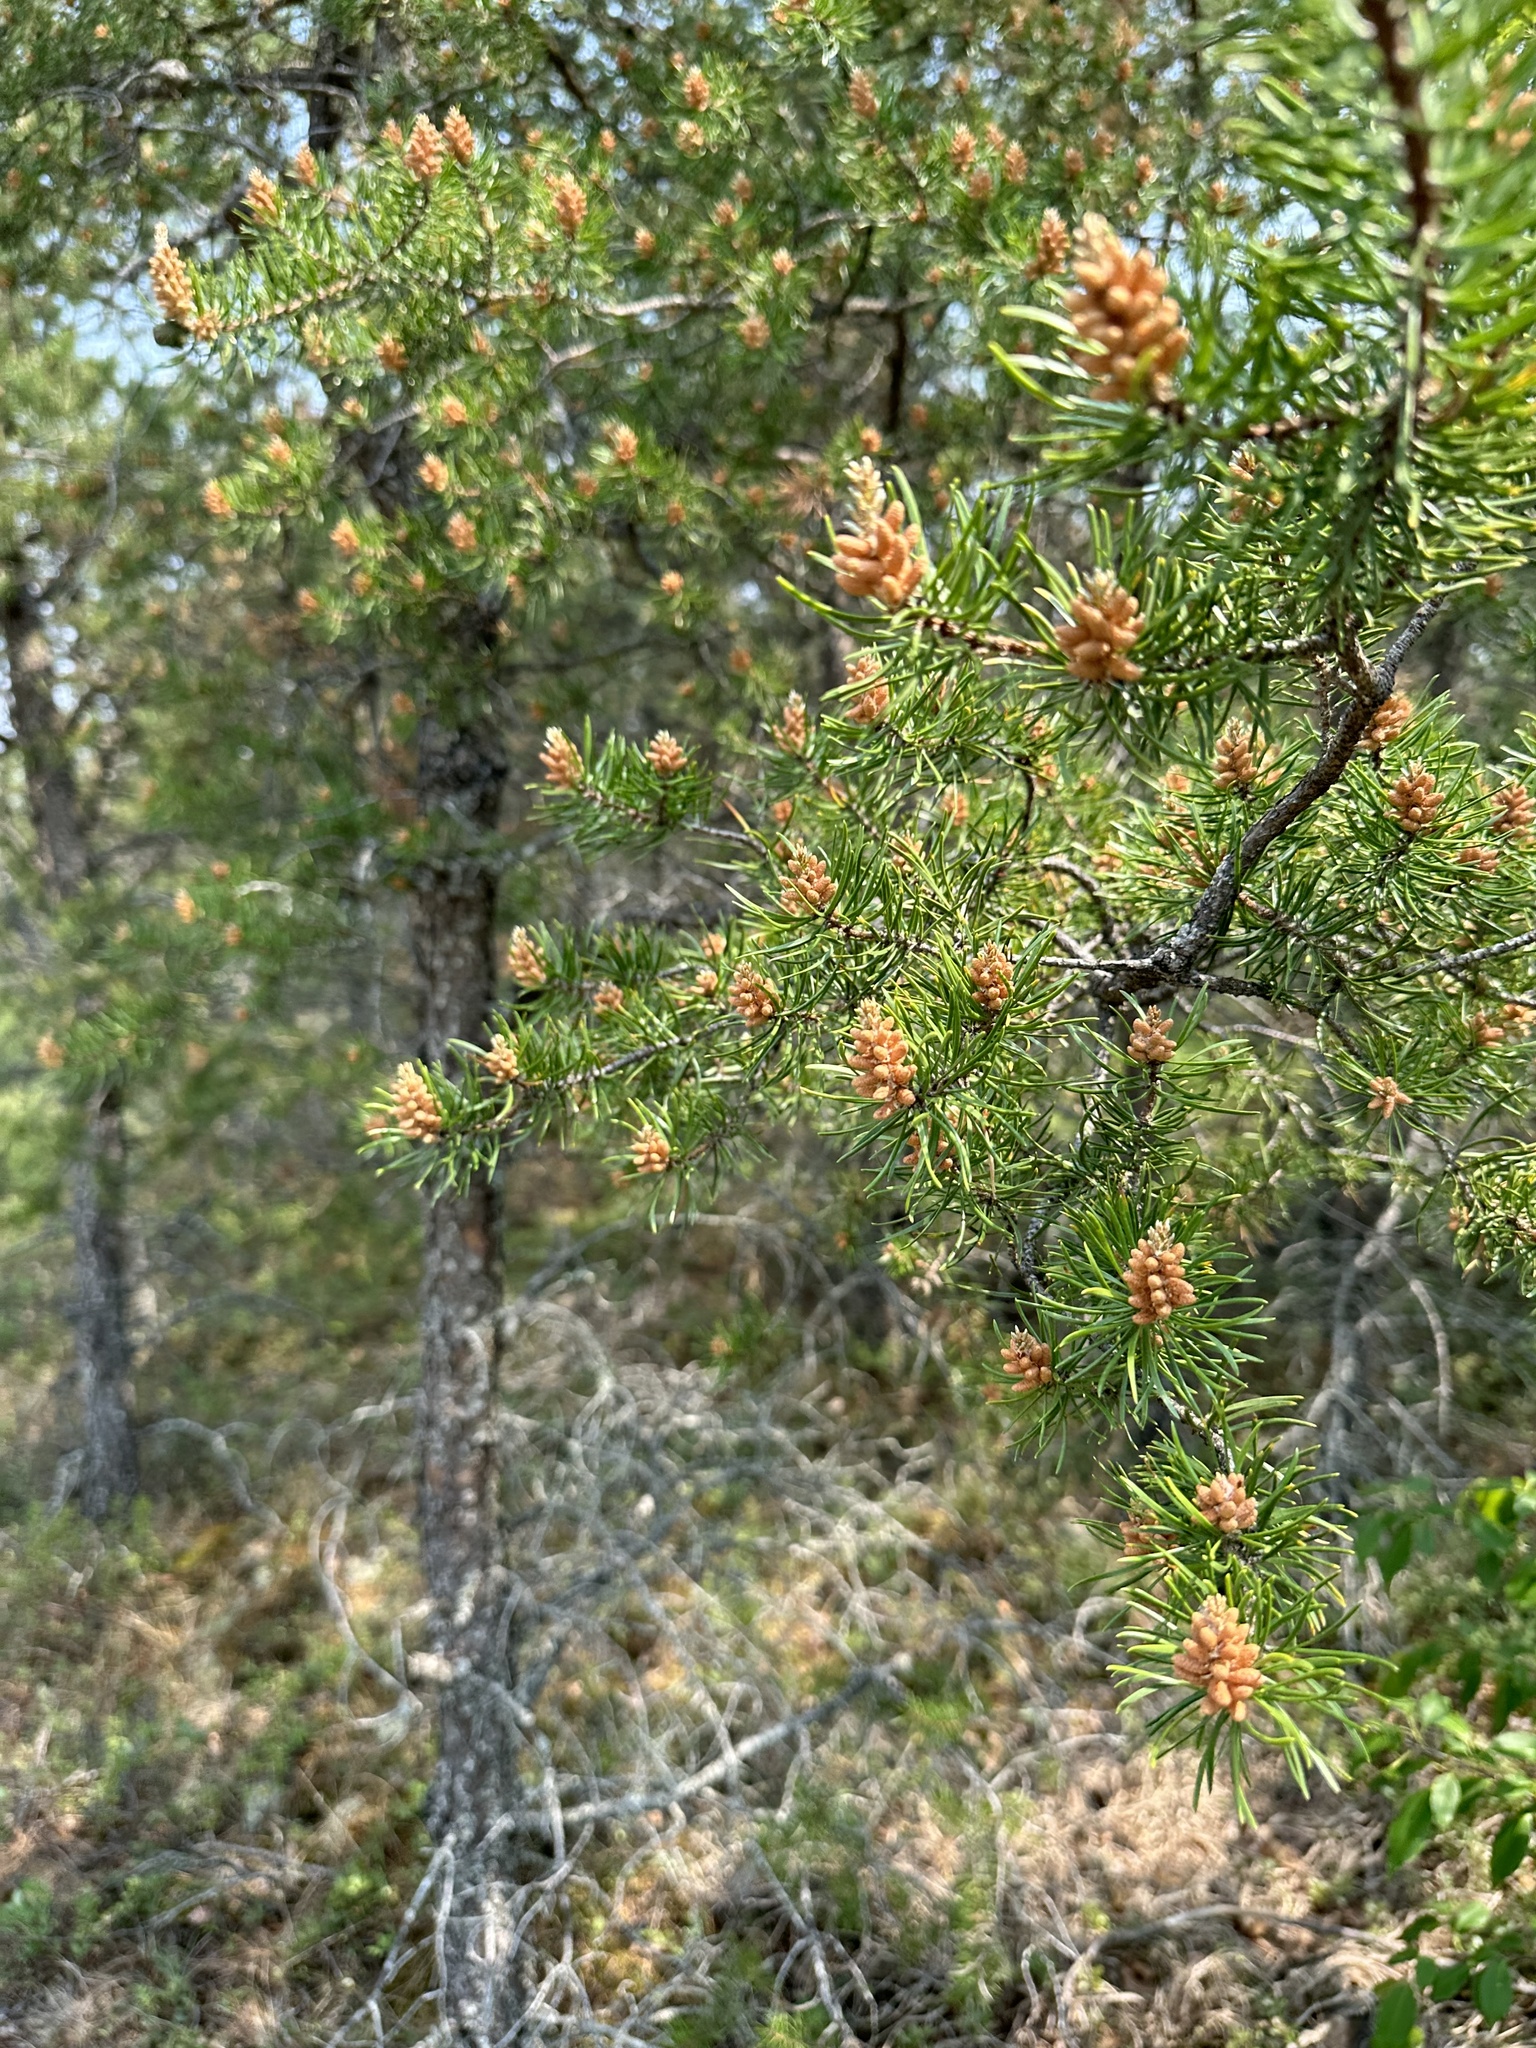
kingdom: Plantae
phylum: Tracheophyta
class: Pinopsida
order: Pinales
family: Pinaceae
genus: Pinus
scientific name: Pinus banksiana
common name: Jack pine
